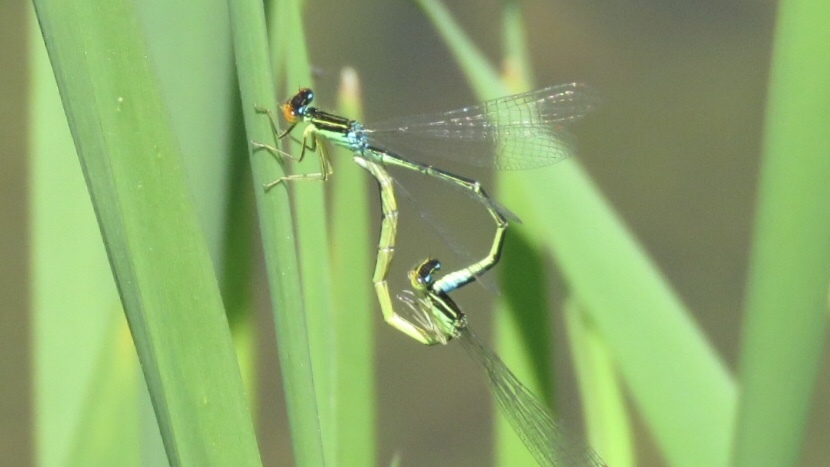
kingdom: Animalia
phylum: Arthropoda
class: Insecta
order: Odonata
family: Coenagrionidae
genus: Enallagma
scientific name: Enallagma antennatum
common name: Rainbow bluet
